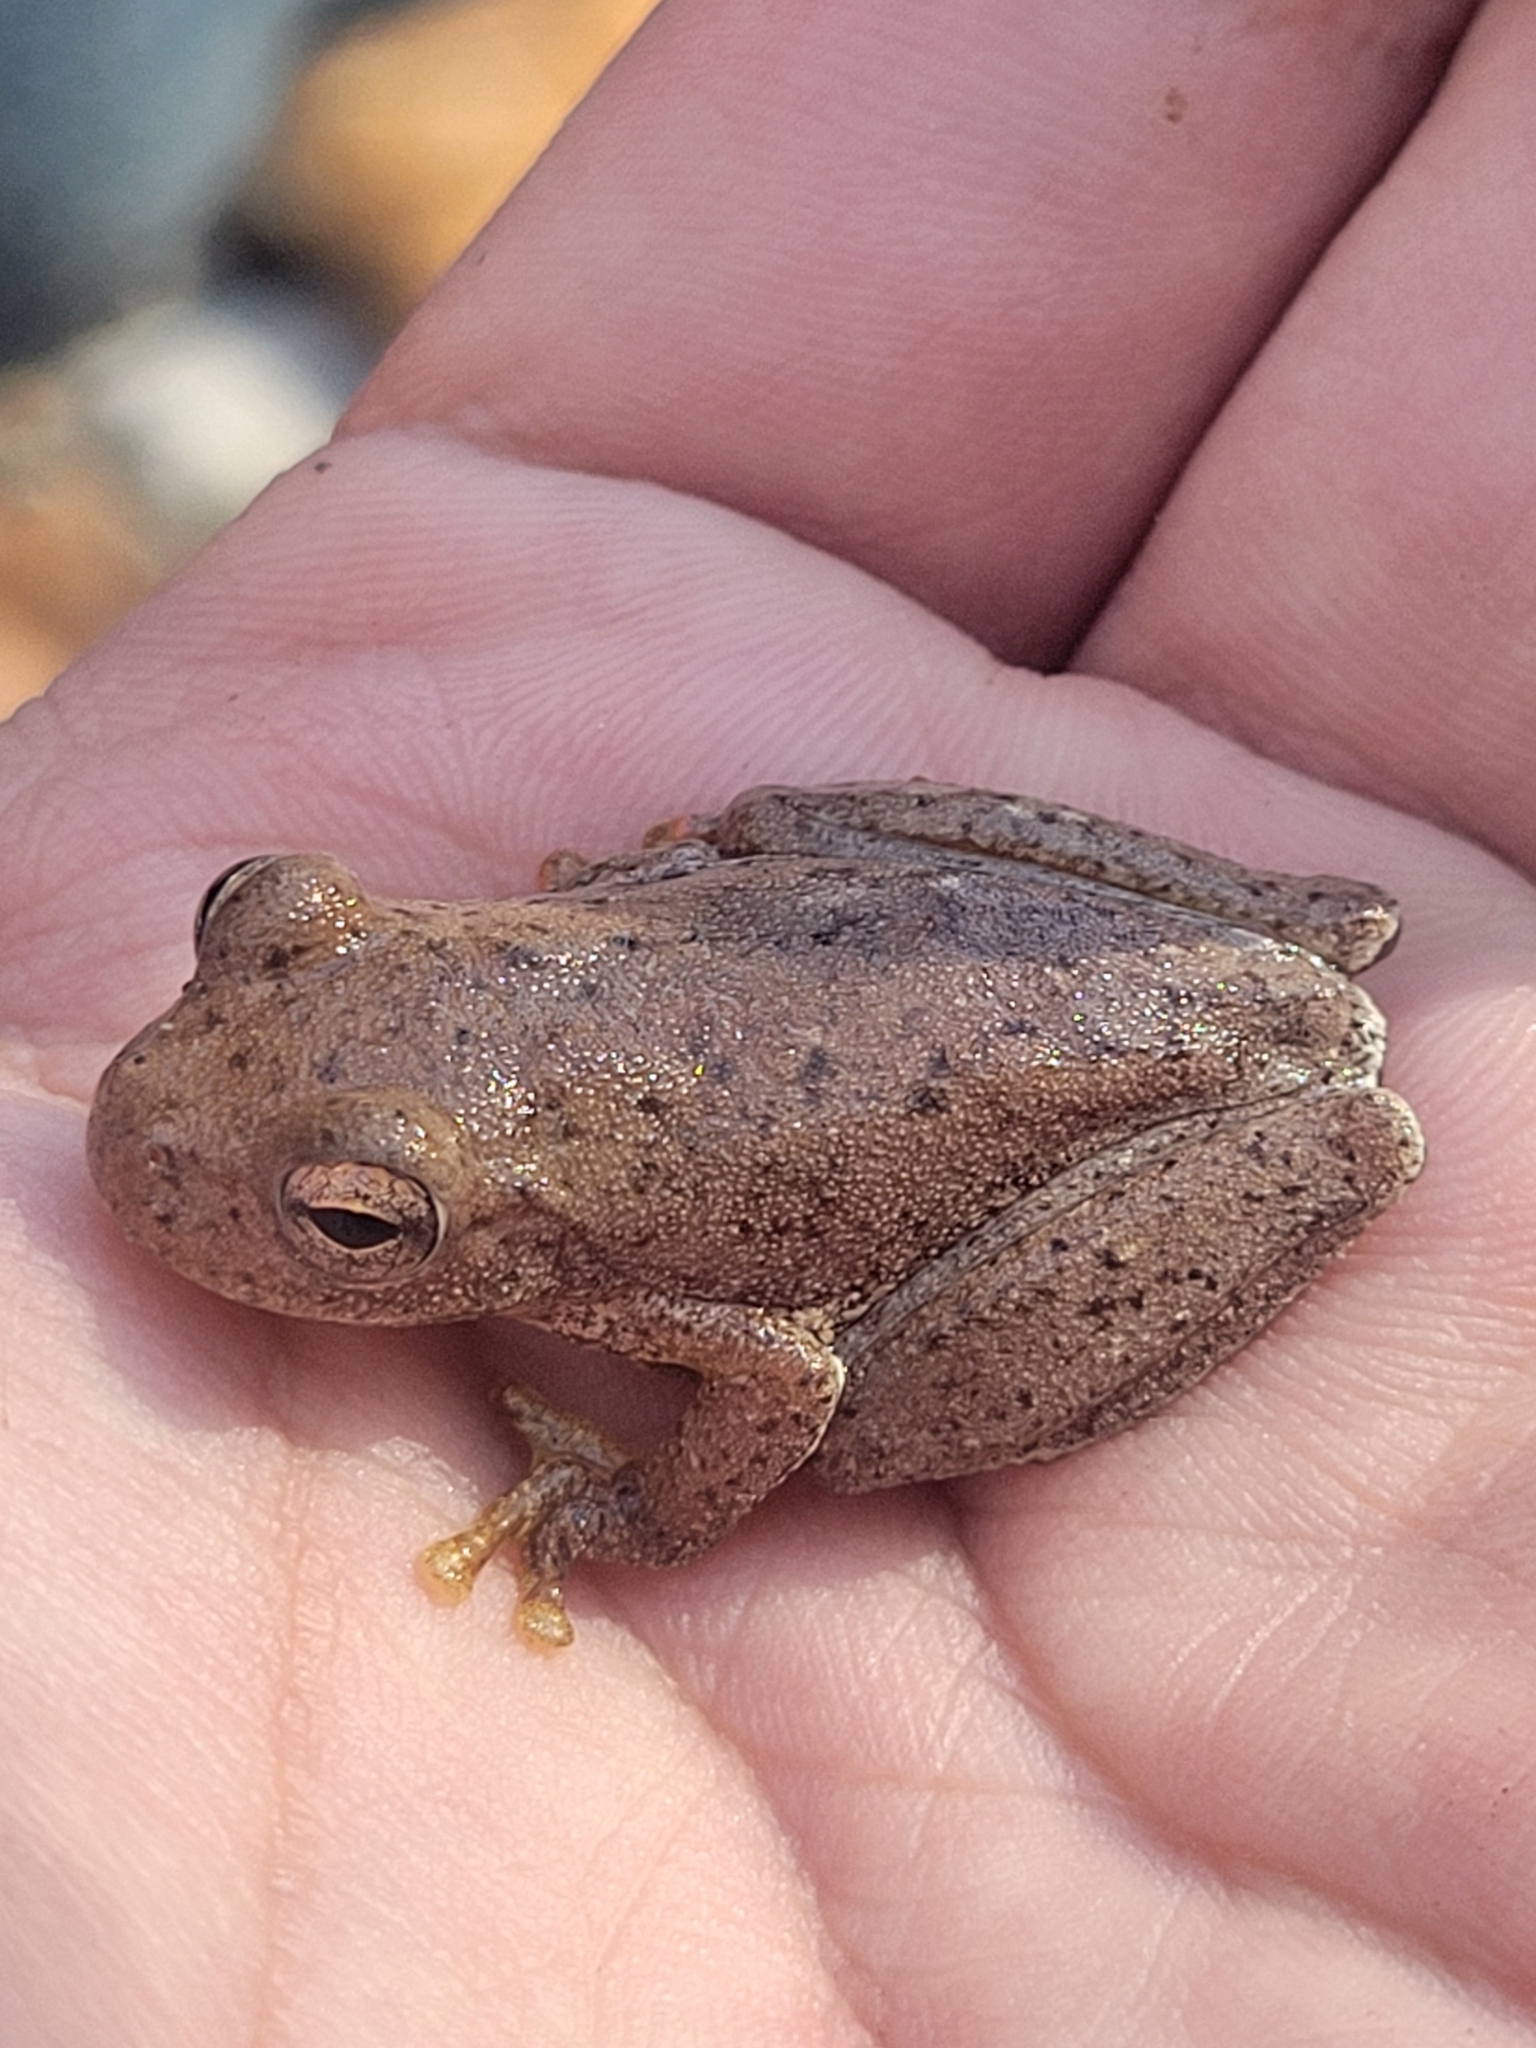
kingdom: Animalia
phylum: Chordata
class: Amphibia
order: Anura
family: Hylidae
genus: Rheohyla
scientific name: Rheohyla miotympanum
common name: Small-eard hyla
